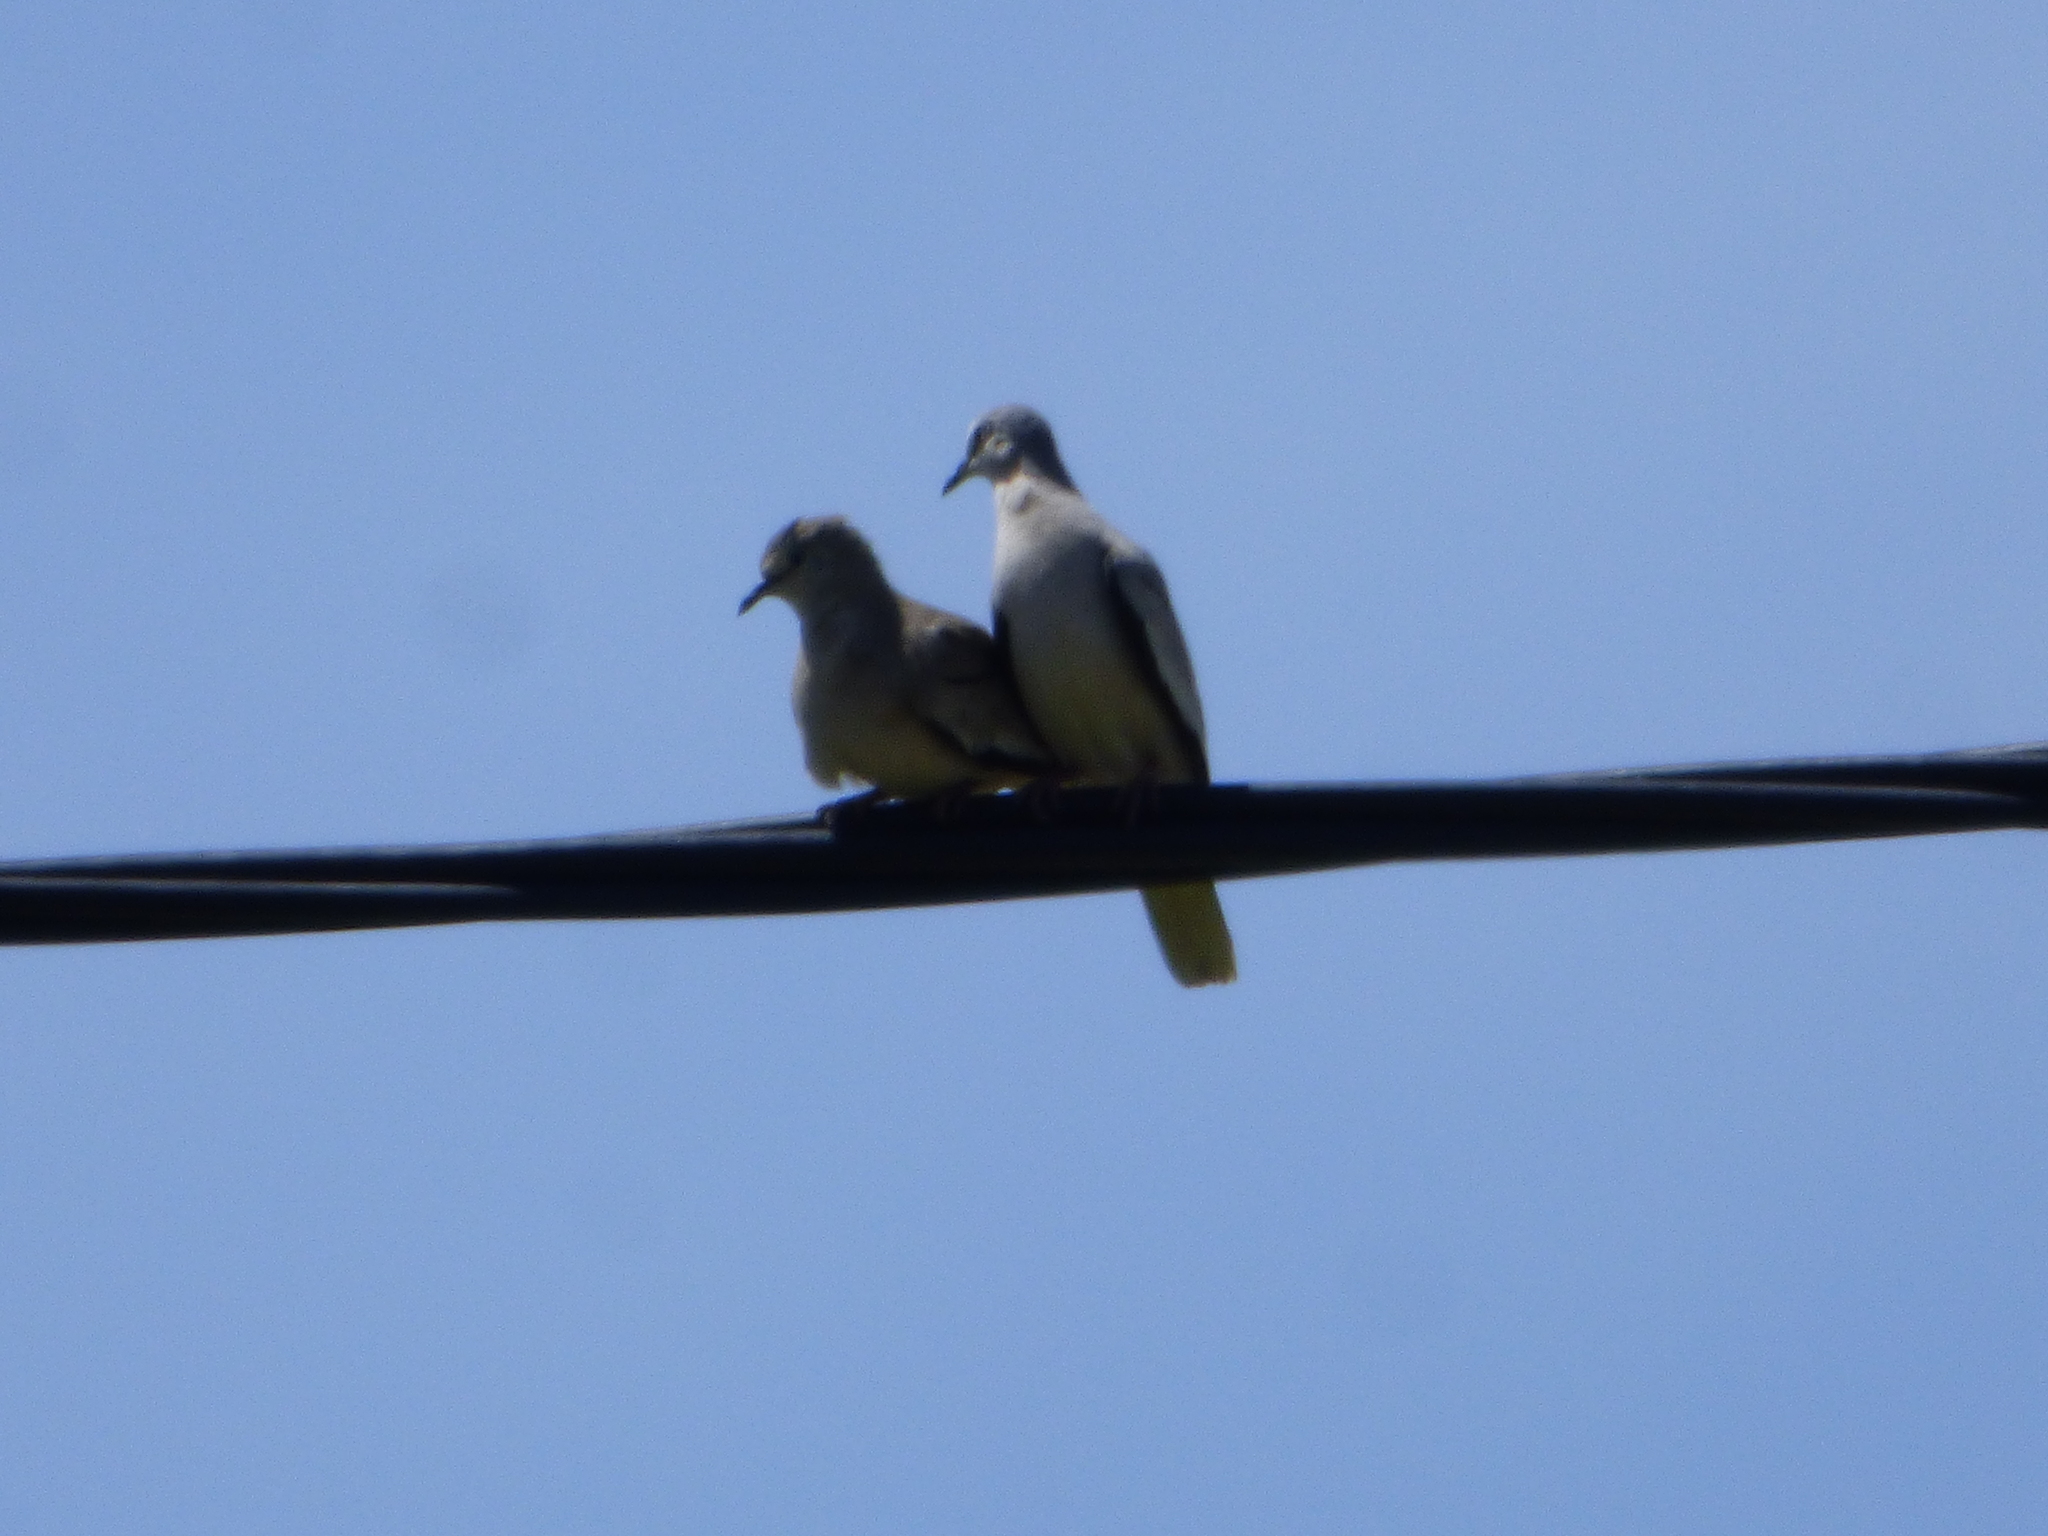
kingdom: Animalia
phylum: Chordata
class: Aves
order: Columbiformes
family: Columbidae
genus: Columbina
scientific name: Columbina picui
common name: Picui ground dove
